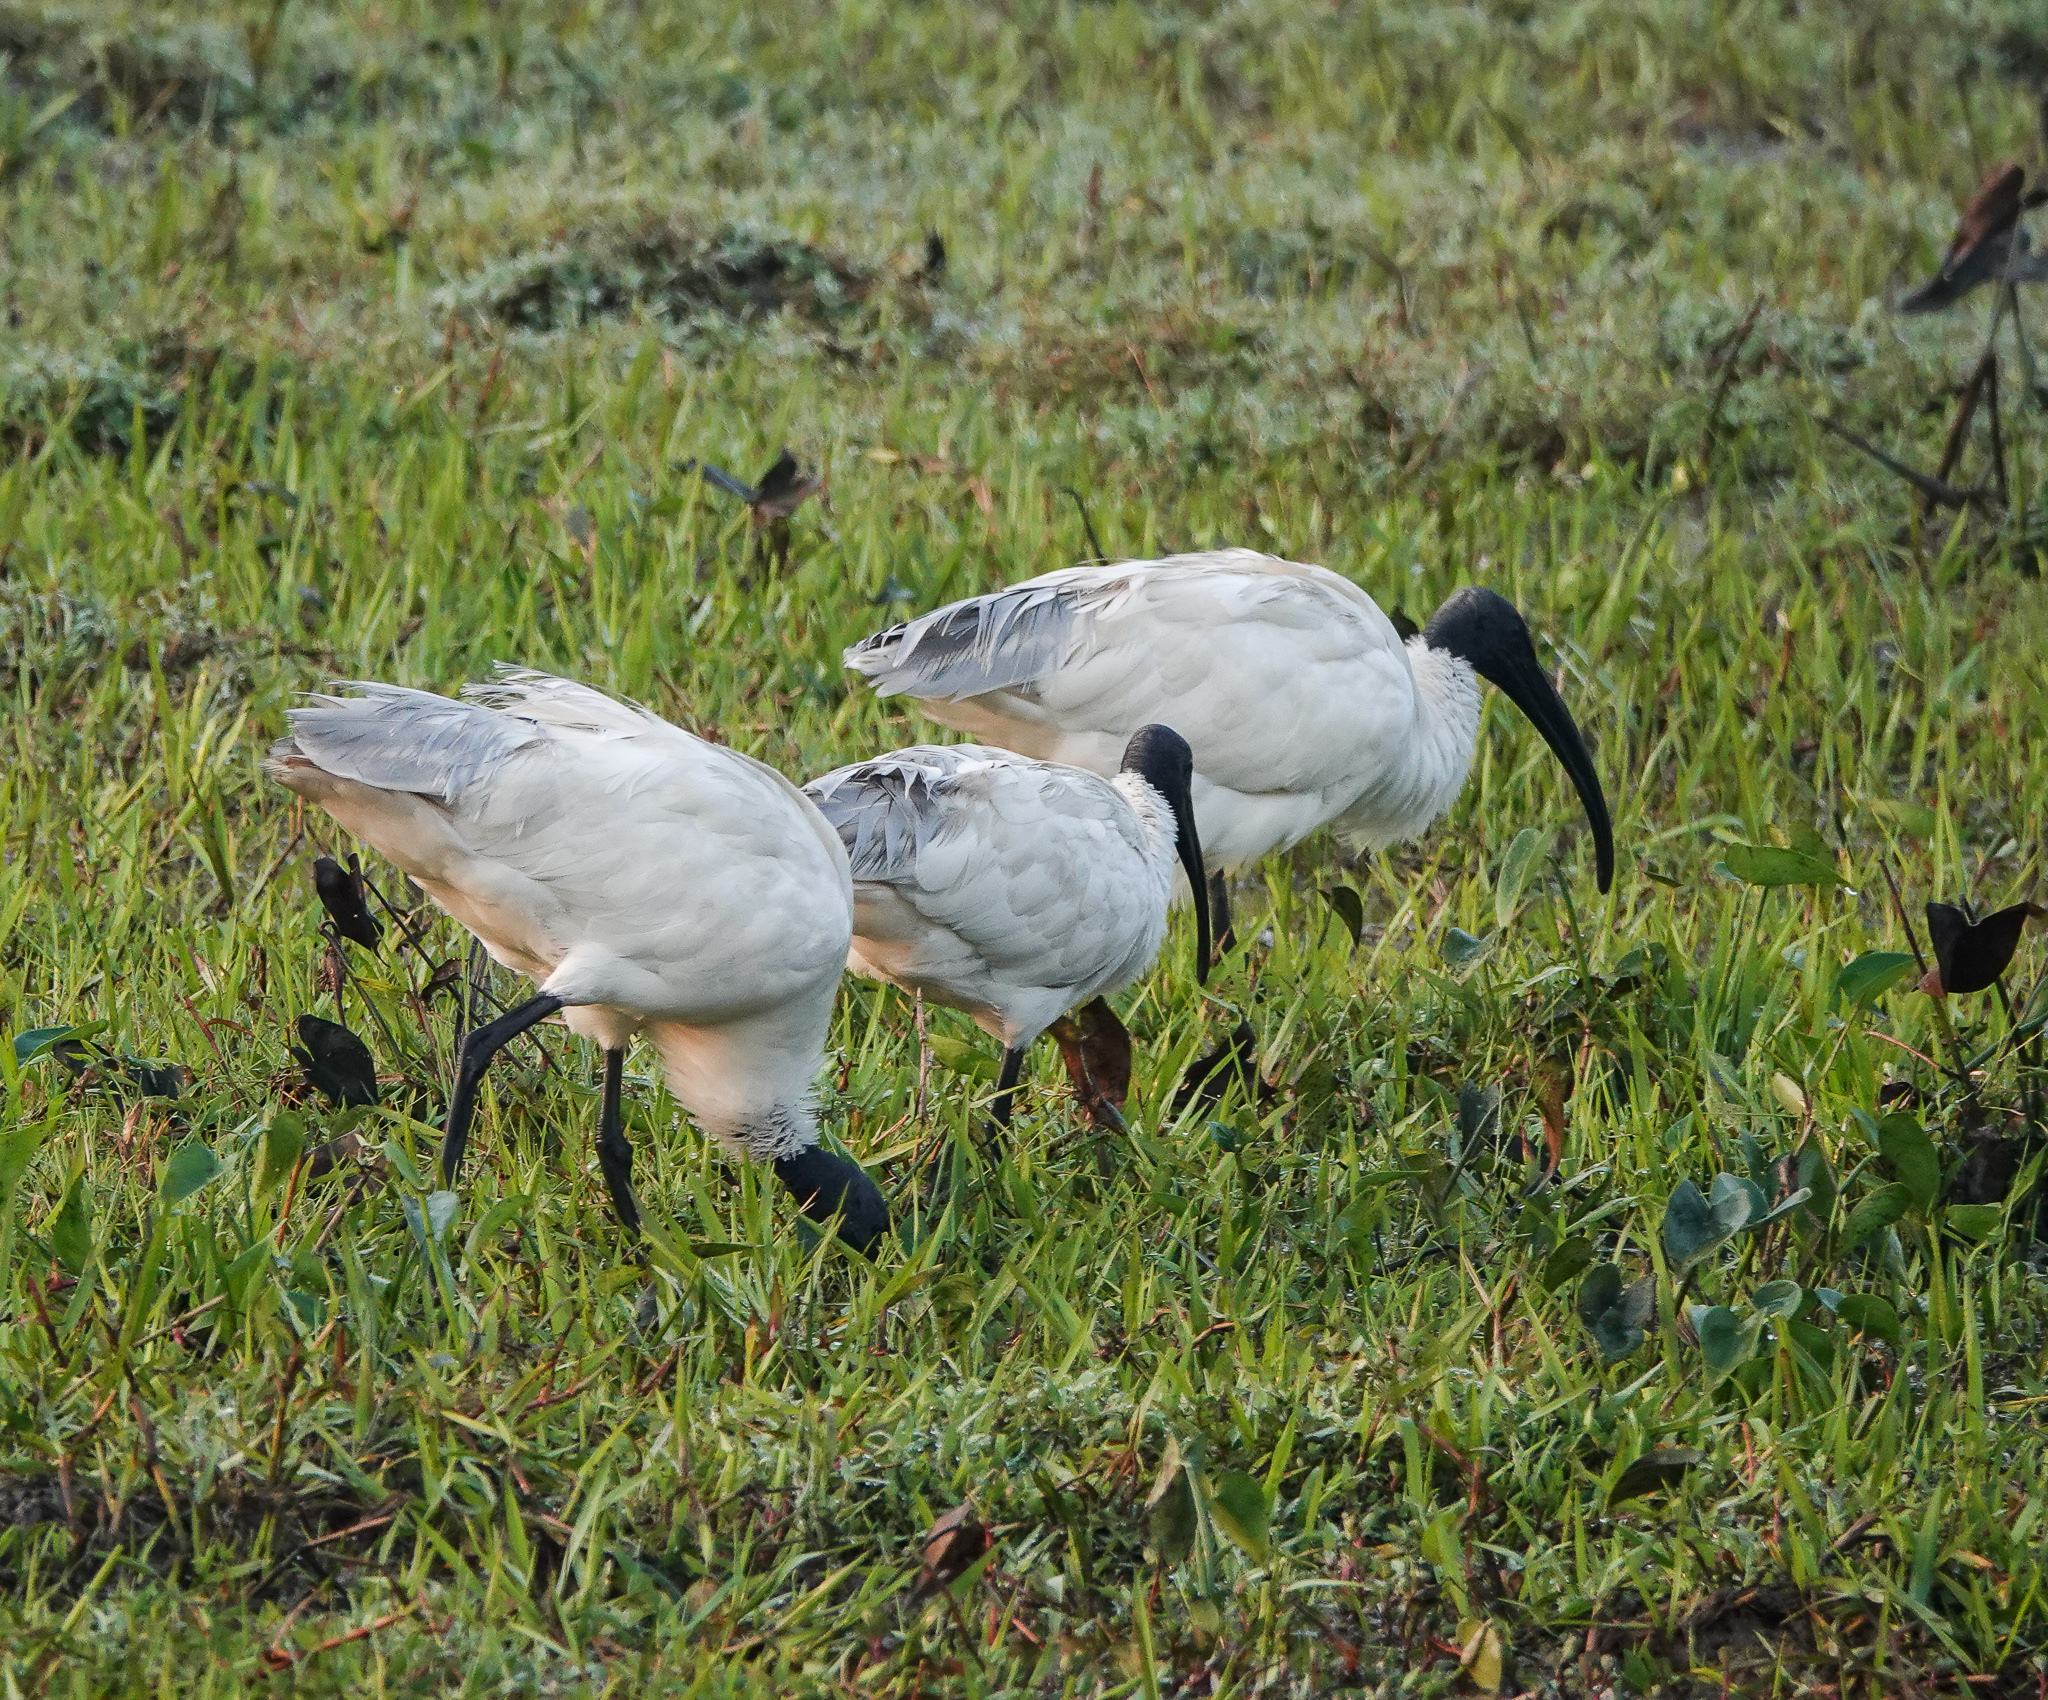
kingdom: Animalia
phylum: Chordata
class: Aves
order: Pelecaniformes
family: Threskiornithidae
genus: Threskiornis
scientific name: Threskiornis melanocephalus
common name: Black-headed ibis
